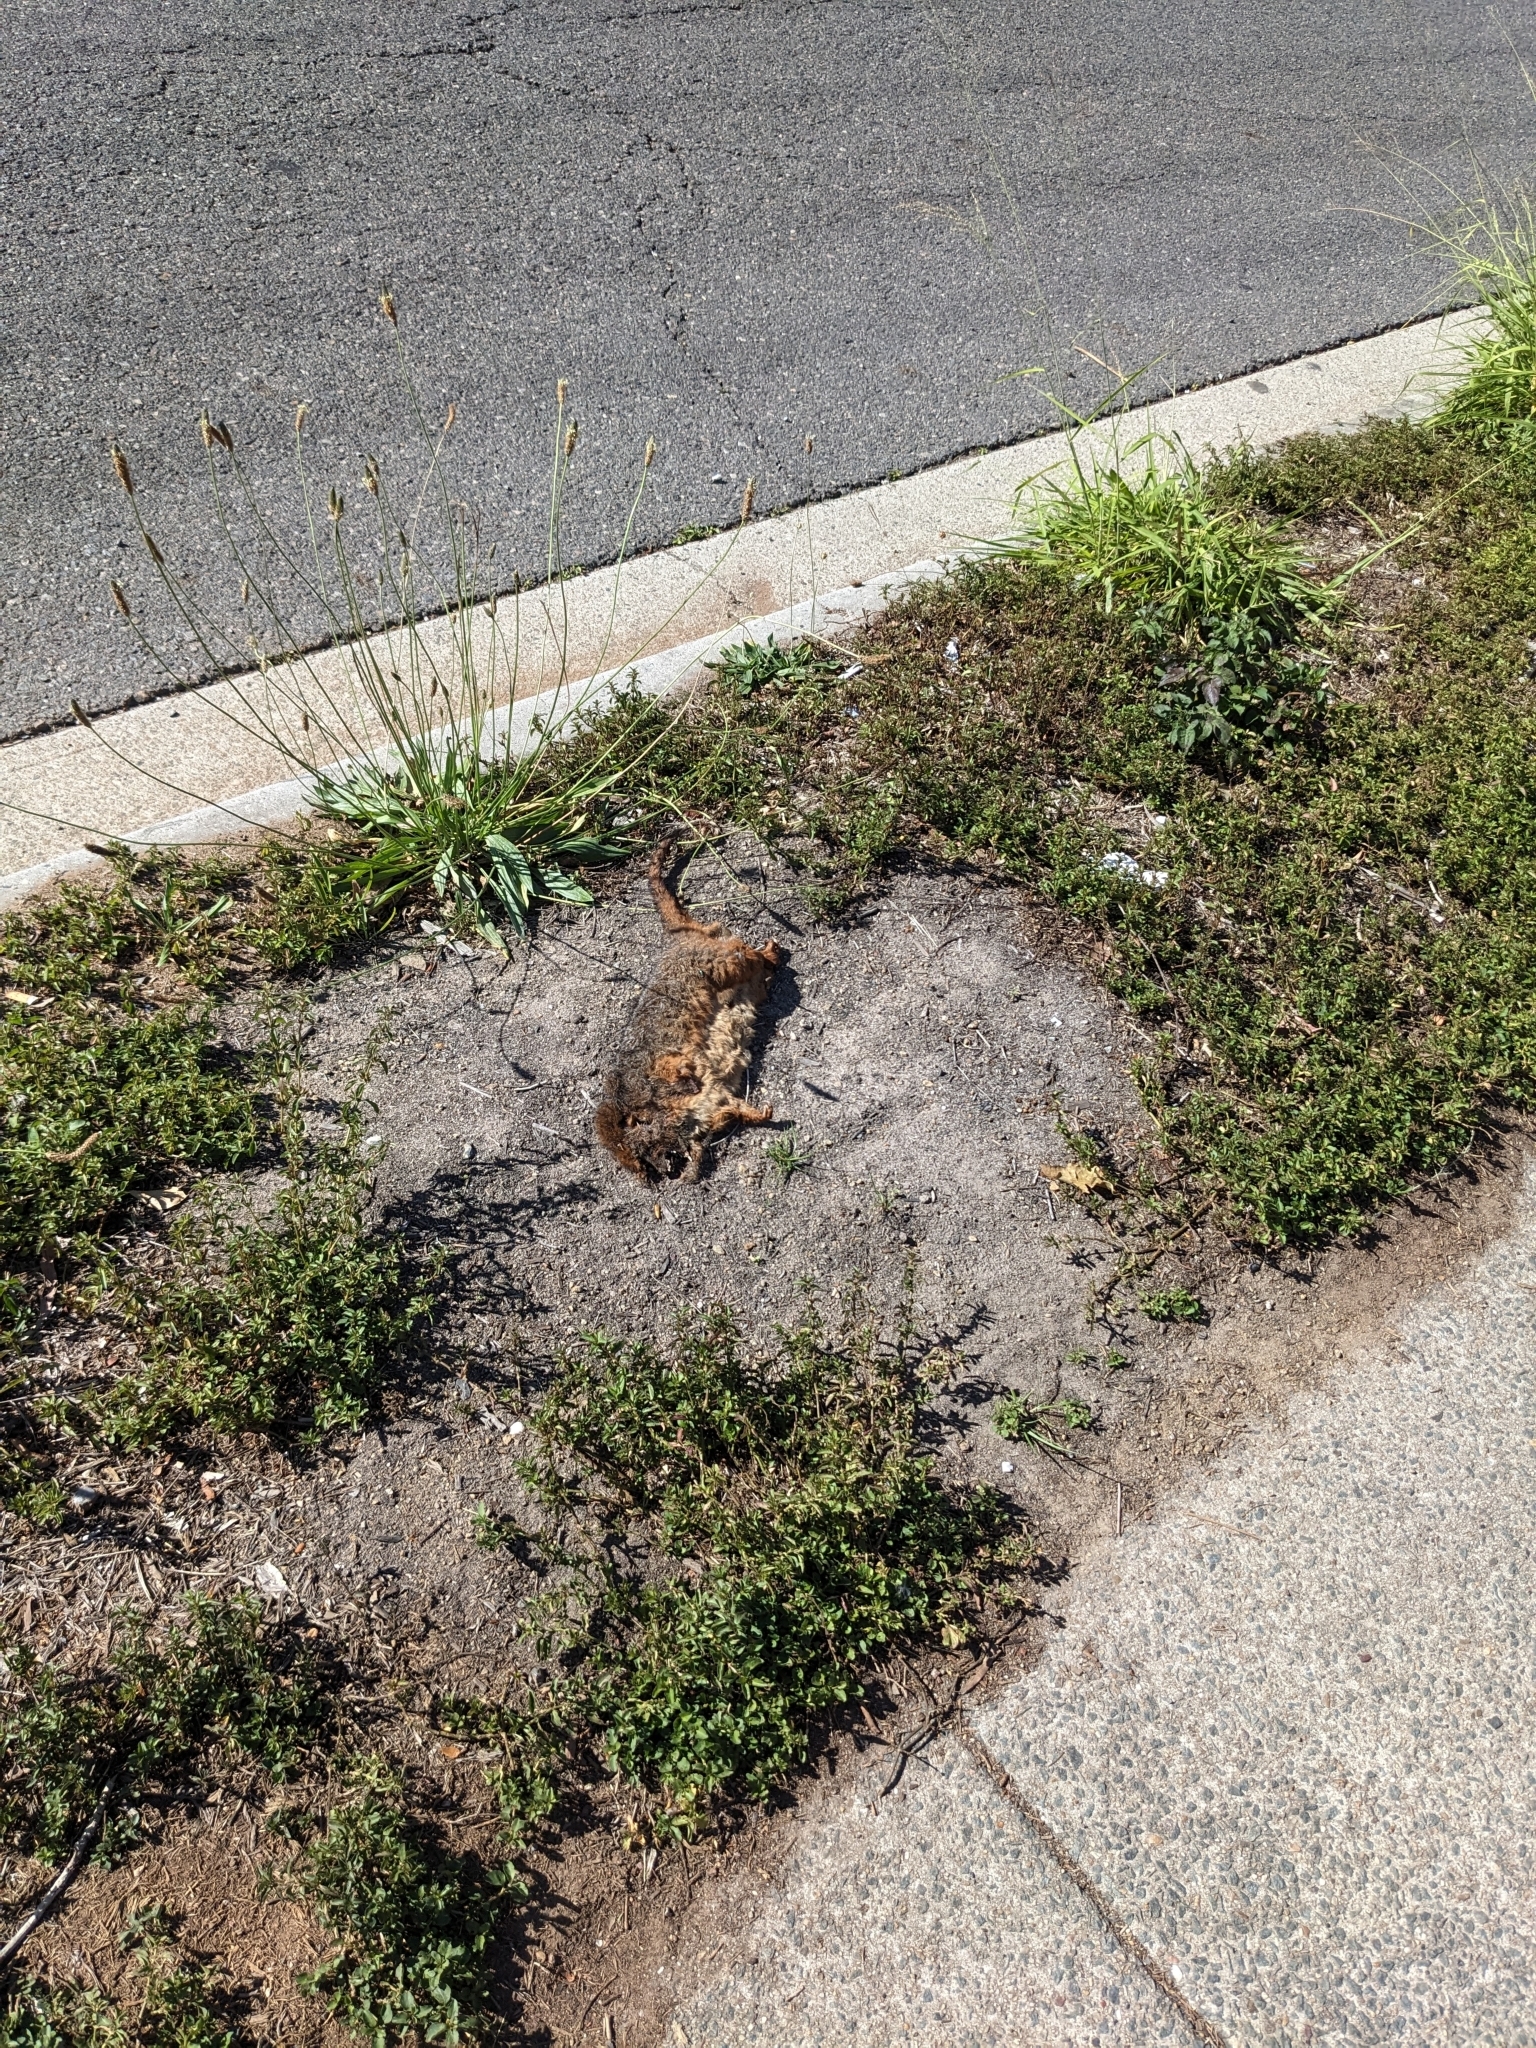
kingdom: Animalia
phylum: Chordata
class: Mammalia
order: Diprotodontia
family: Pseudocheiridae
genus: Pseudocheirus
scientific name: Pseudocheirus peregrinus
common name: Common ringtail possum
